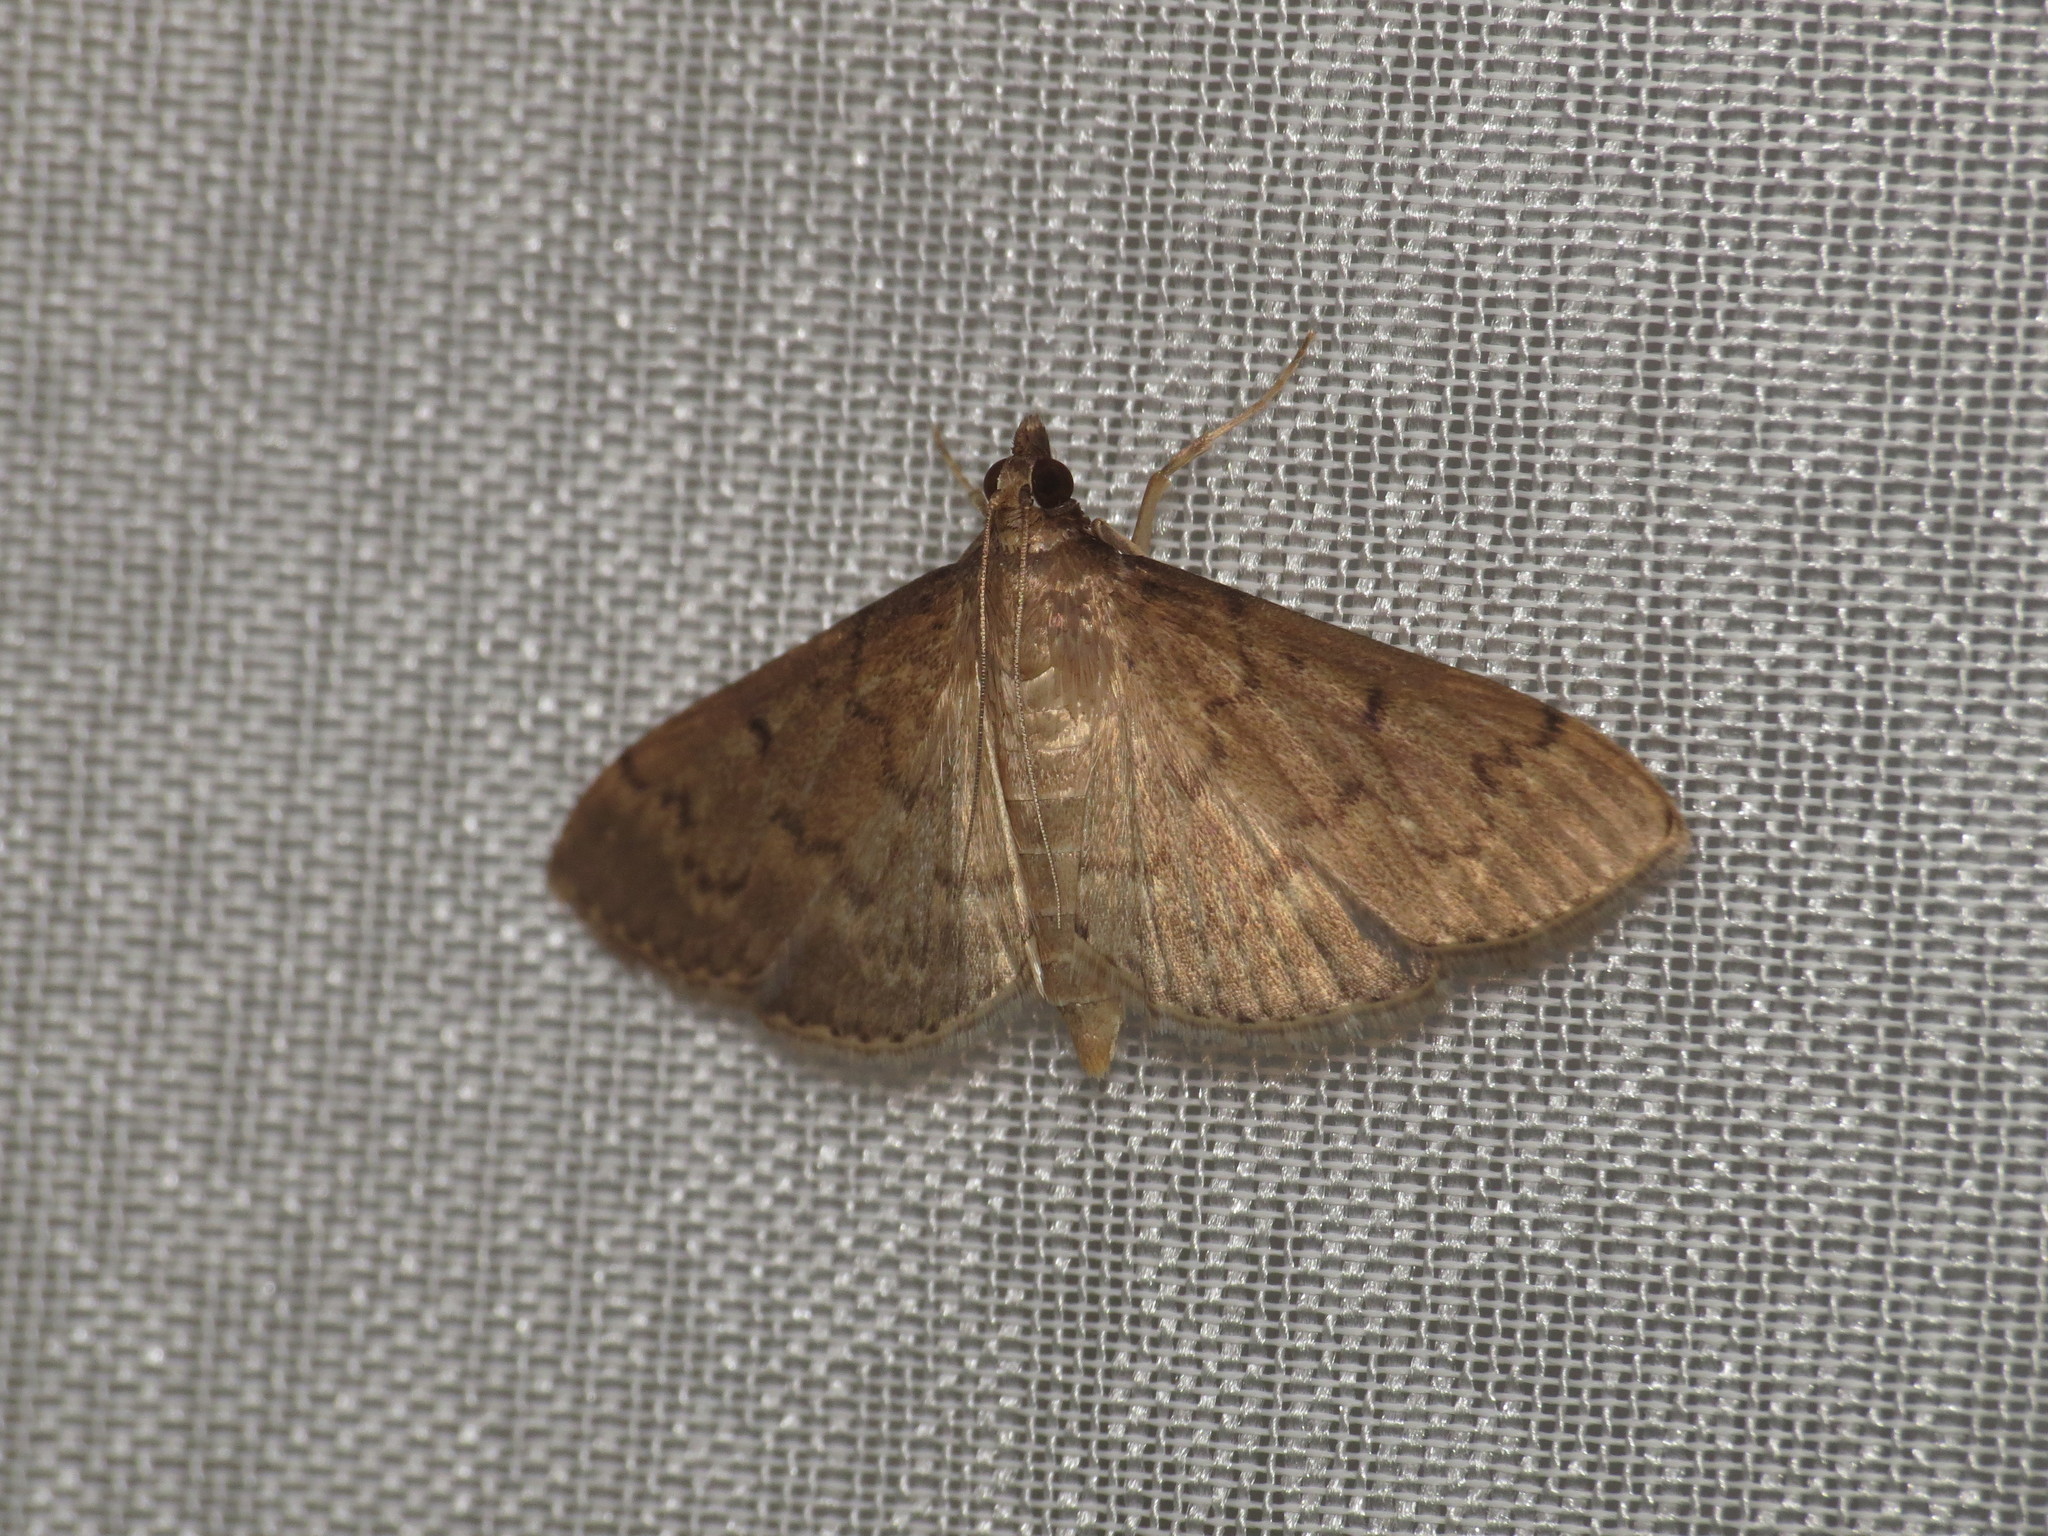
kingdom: Animalia
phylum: Arthropoda
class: Insecta
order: Lepidoptera
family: Crambidae
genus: Herpetogramma
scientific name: Herpetogramma licarsisalis
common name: Grass webworm
